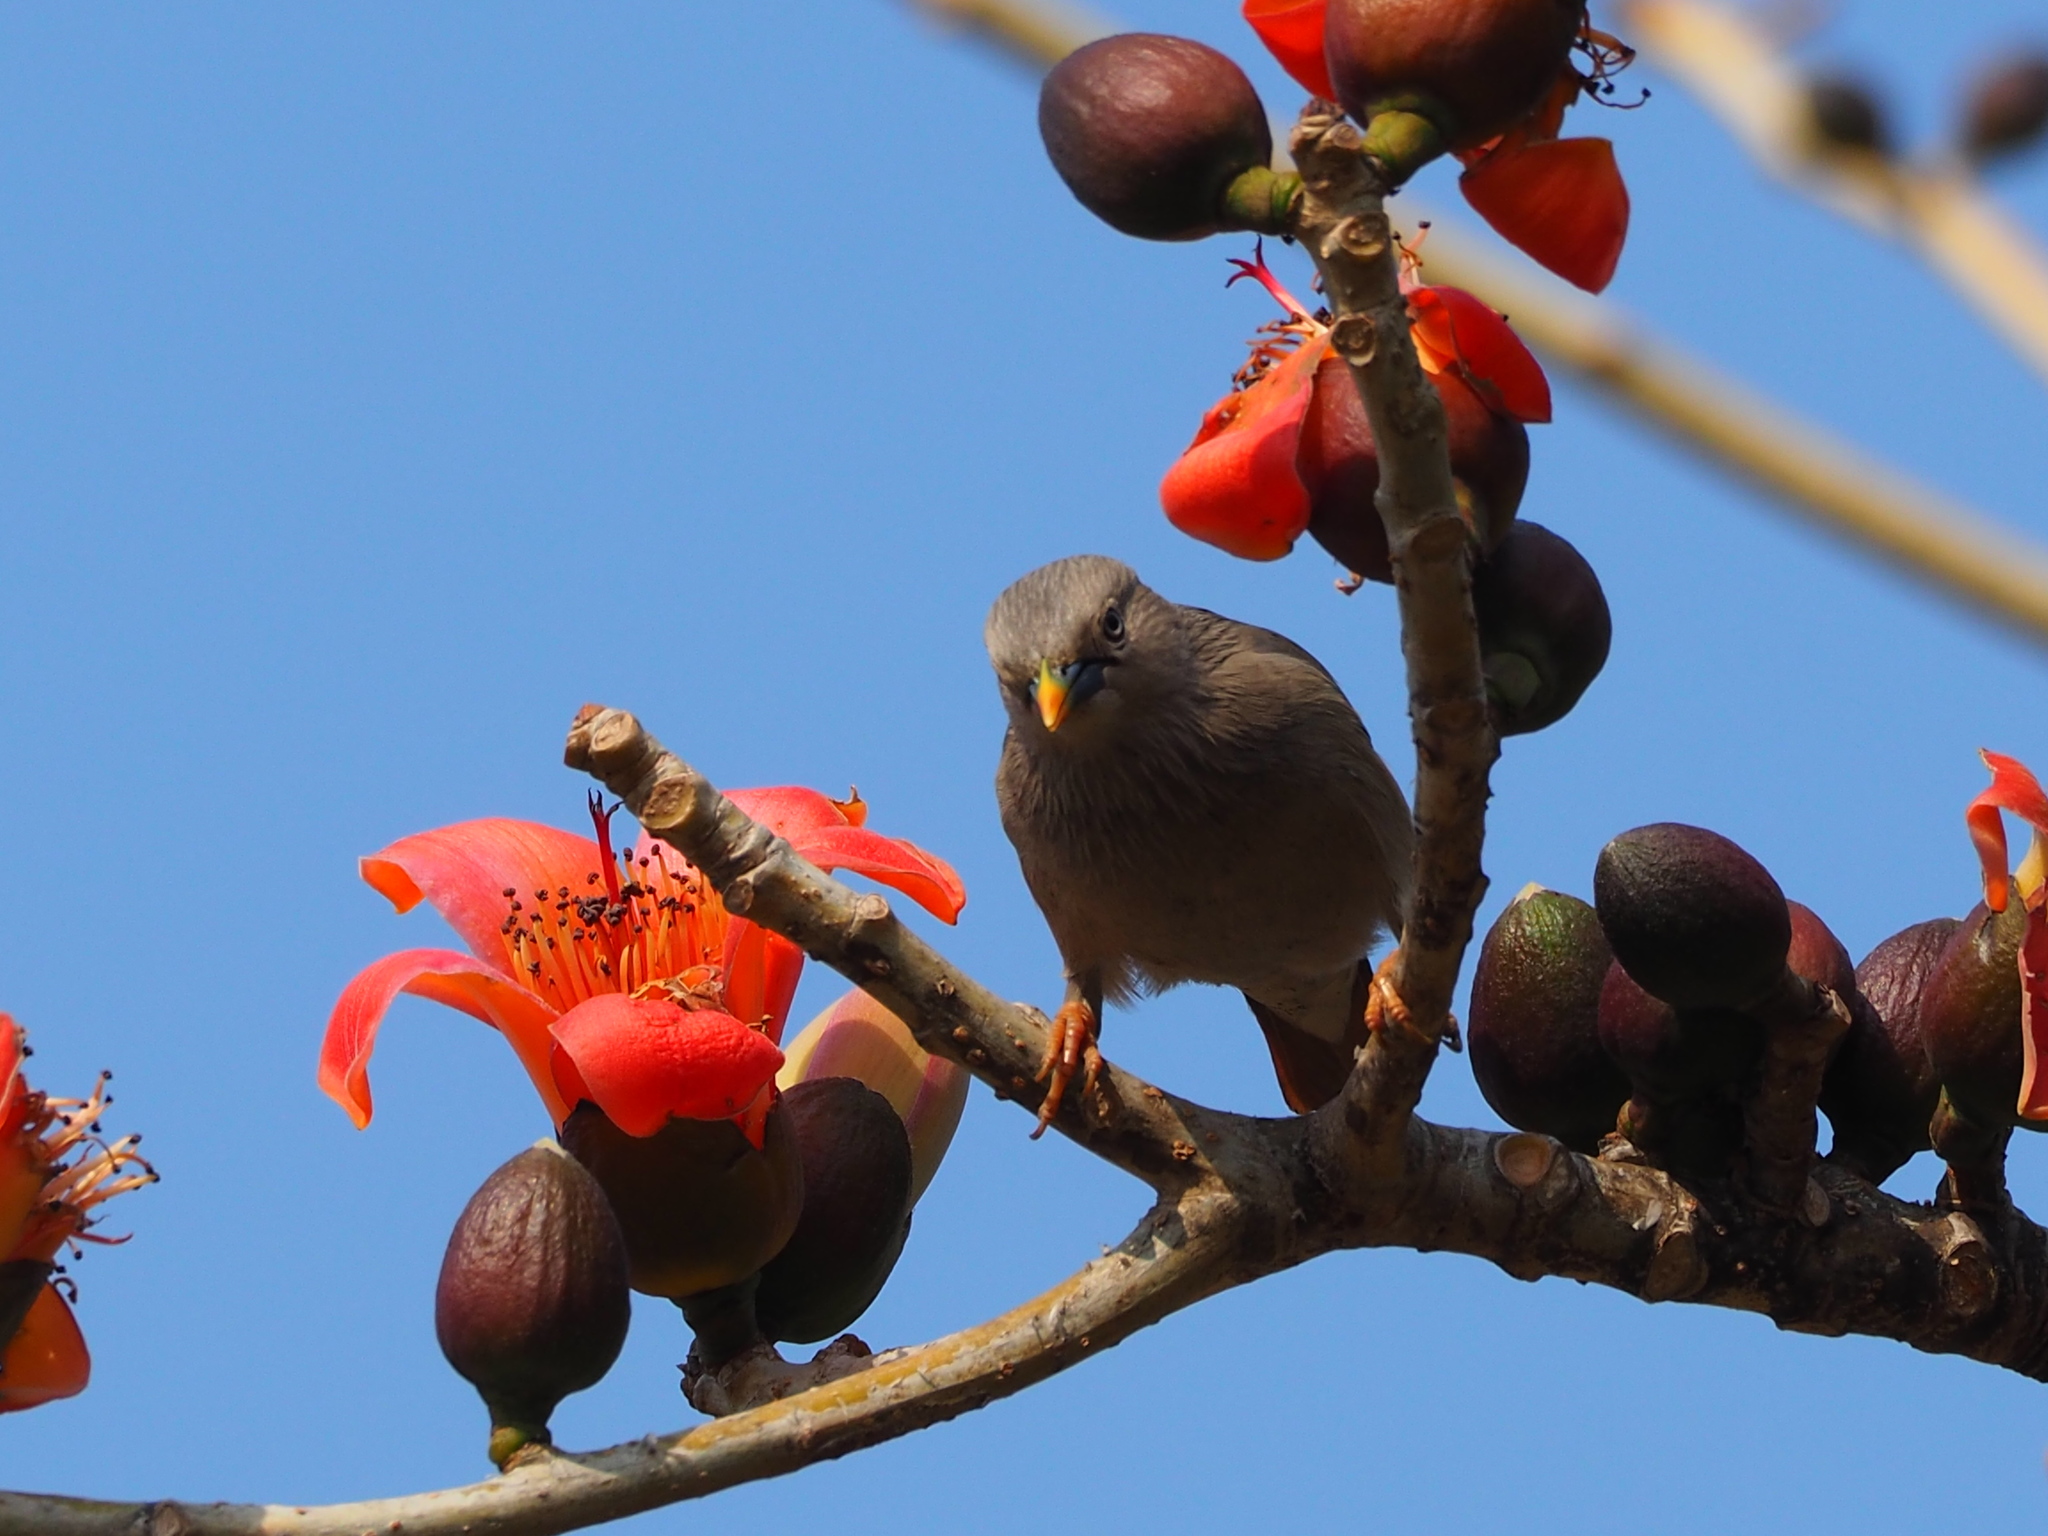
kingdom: Animalia
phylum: Chordata
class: Aves
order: Passeriformes
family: Sturnidae
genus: Sturnia
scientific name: Sturnia malabarica
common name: Chestnut-tailed starling
